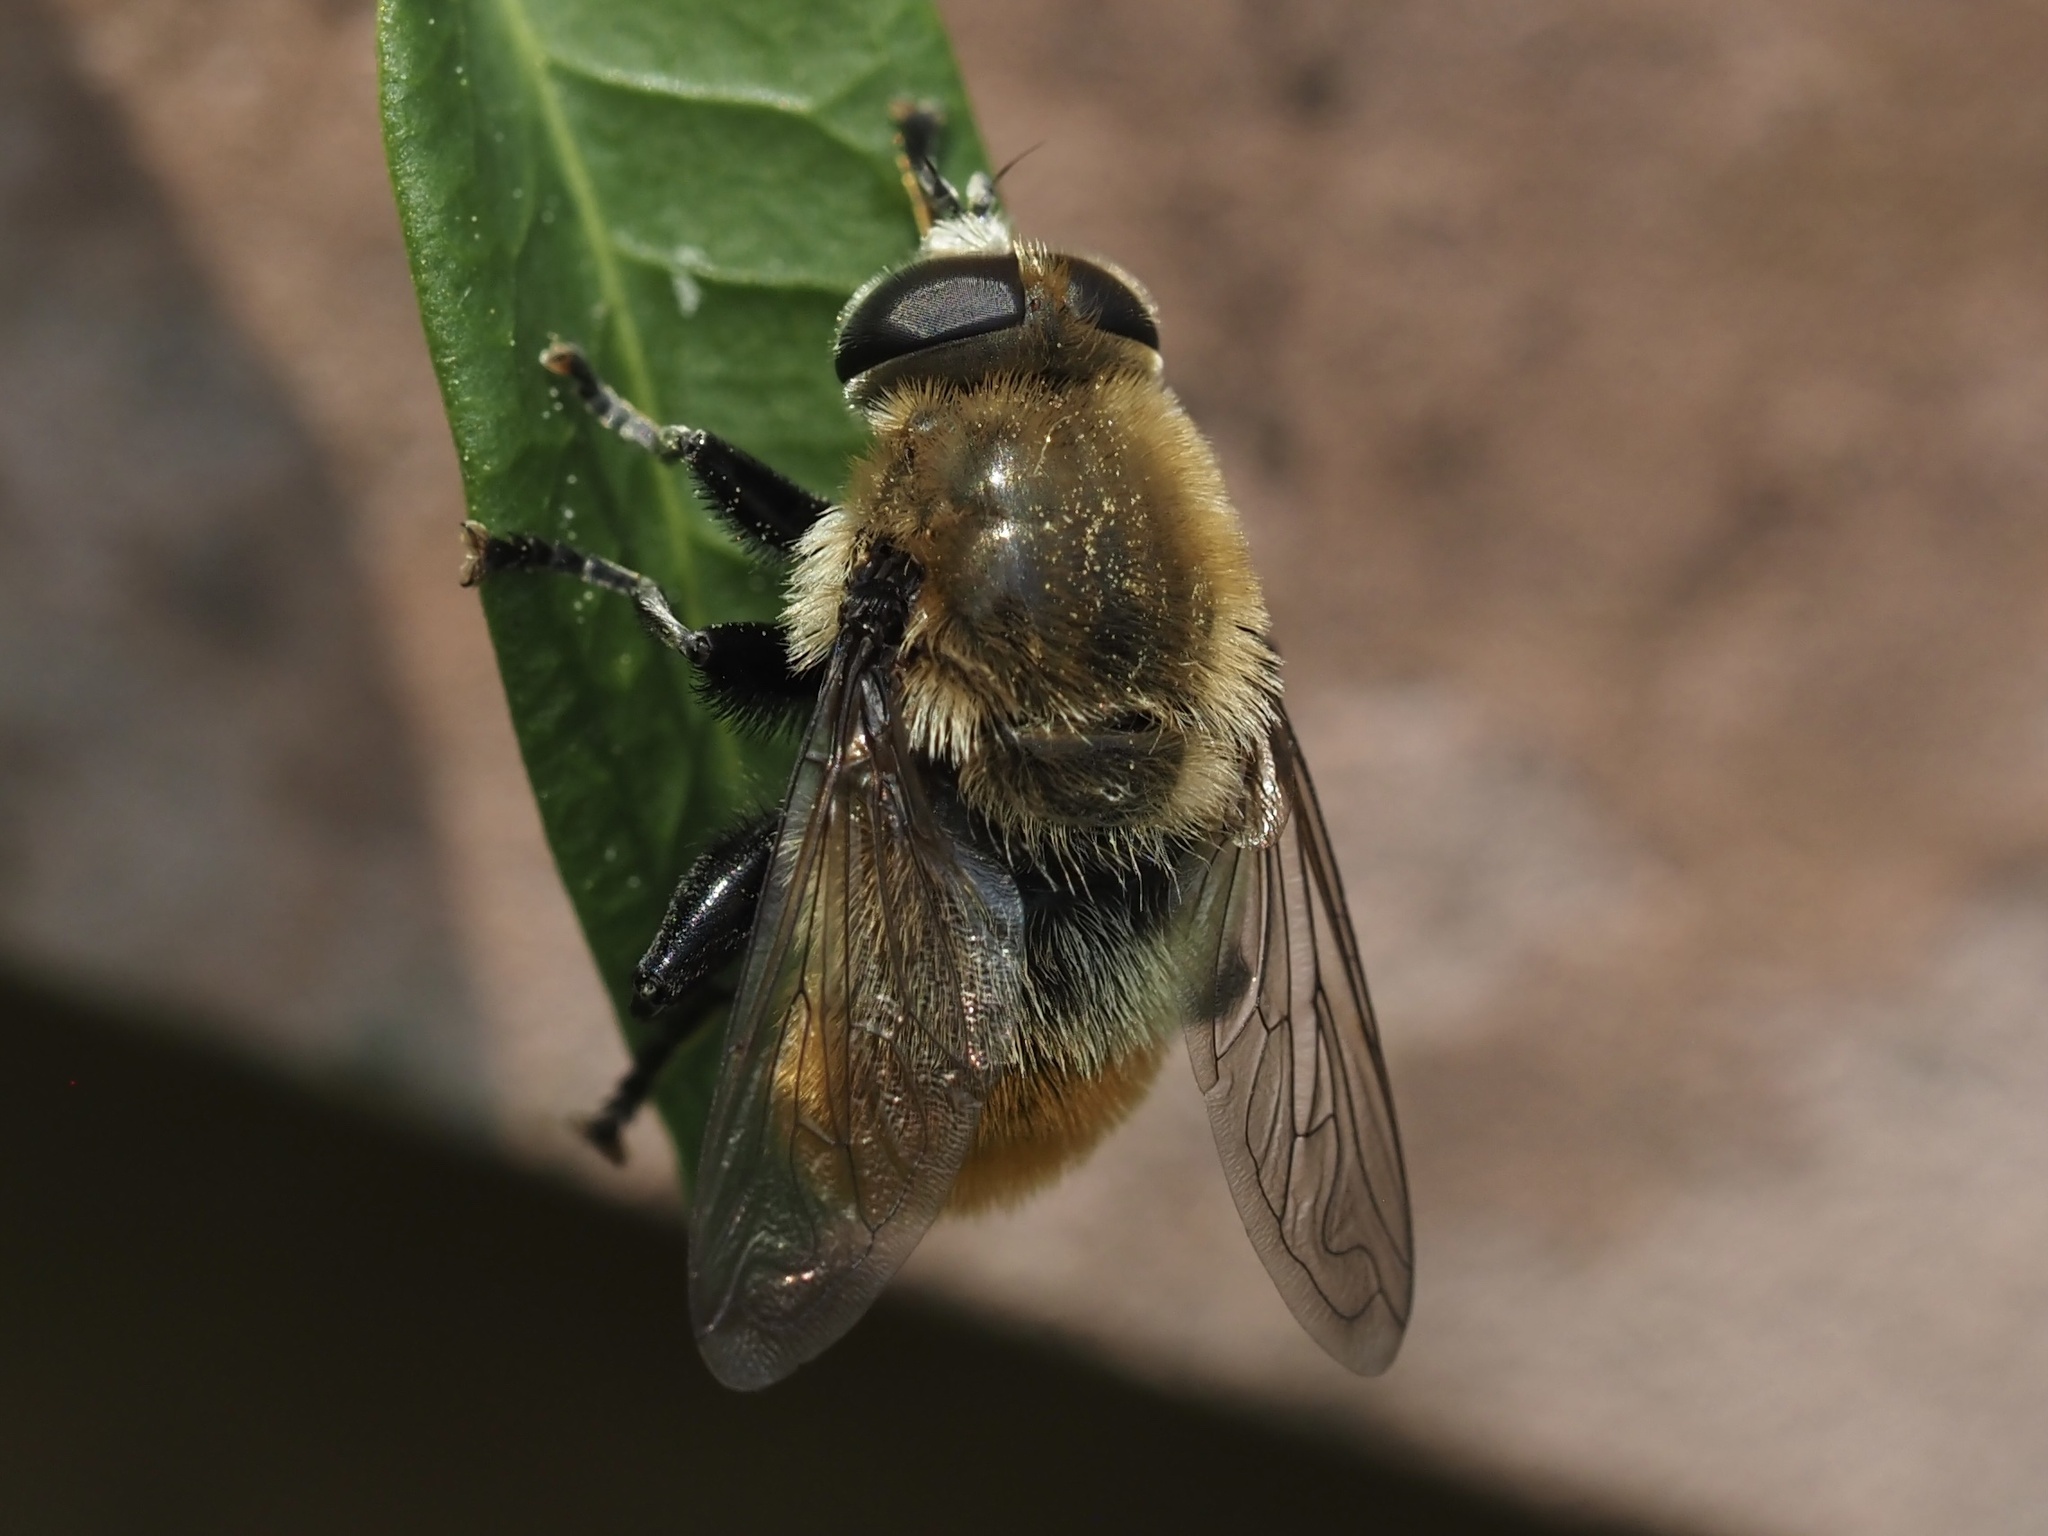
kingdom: Animalia
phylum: Arthropoda
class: Insecta
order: Diptera
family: Syrphidae
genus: Merodon
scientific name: Merodon equestris
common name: Greater bulb-fly
